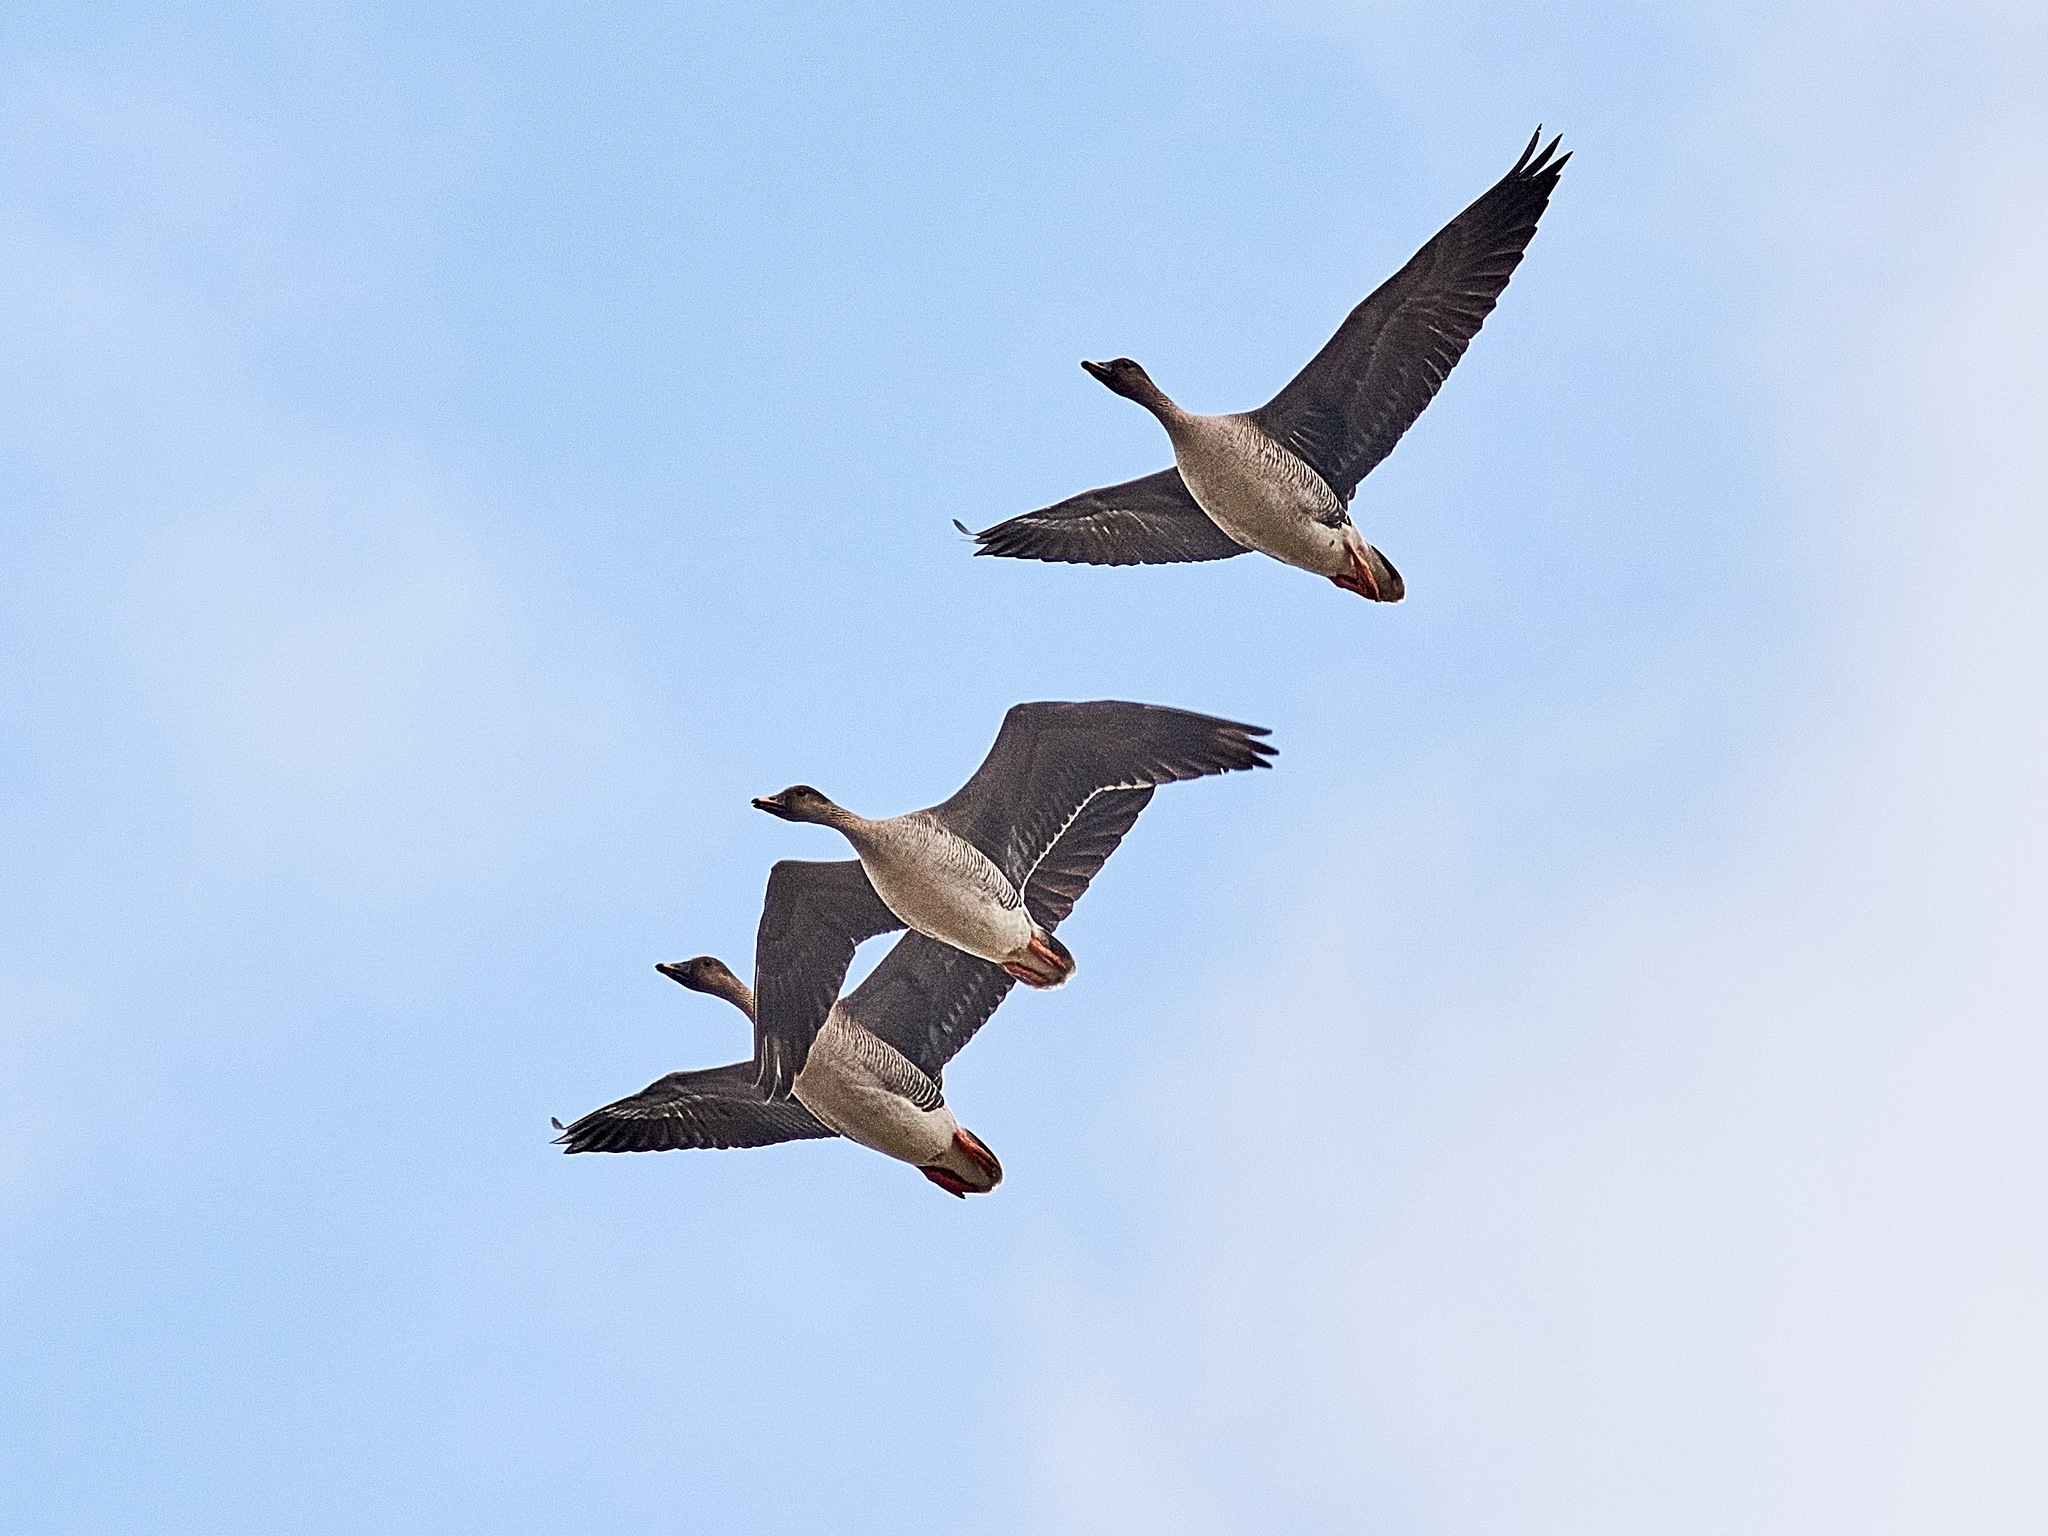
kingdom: Animalia
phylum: Chordata
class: Aves
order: Anseriformes
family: Anatidae
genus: Anser
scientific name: Anser fabalis
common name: Bean goose
